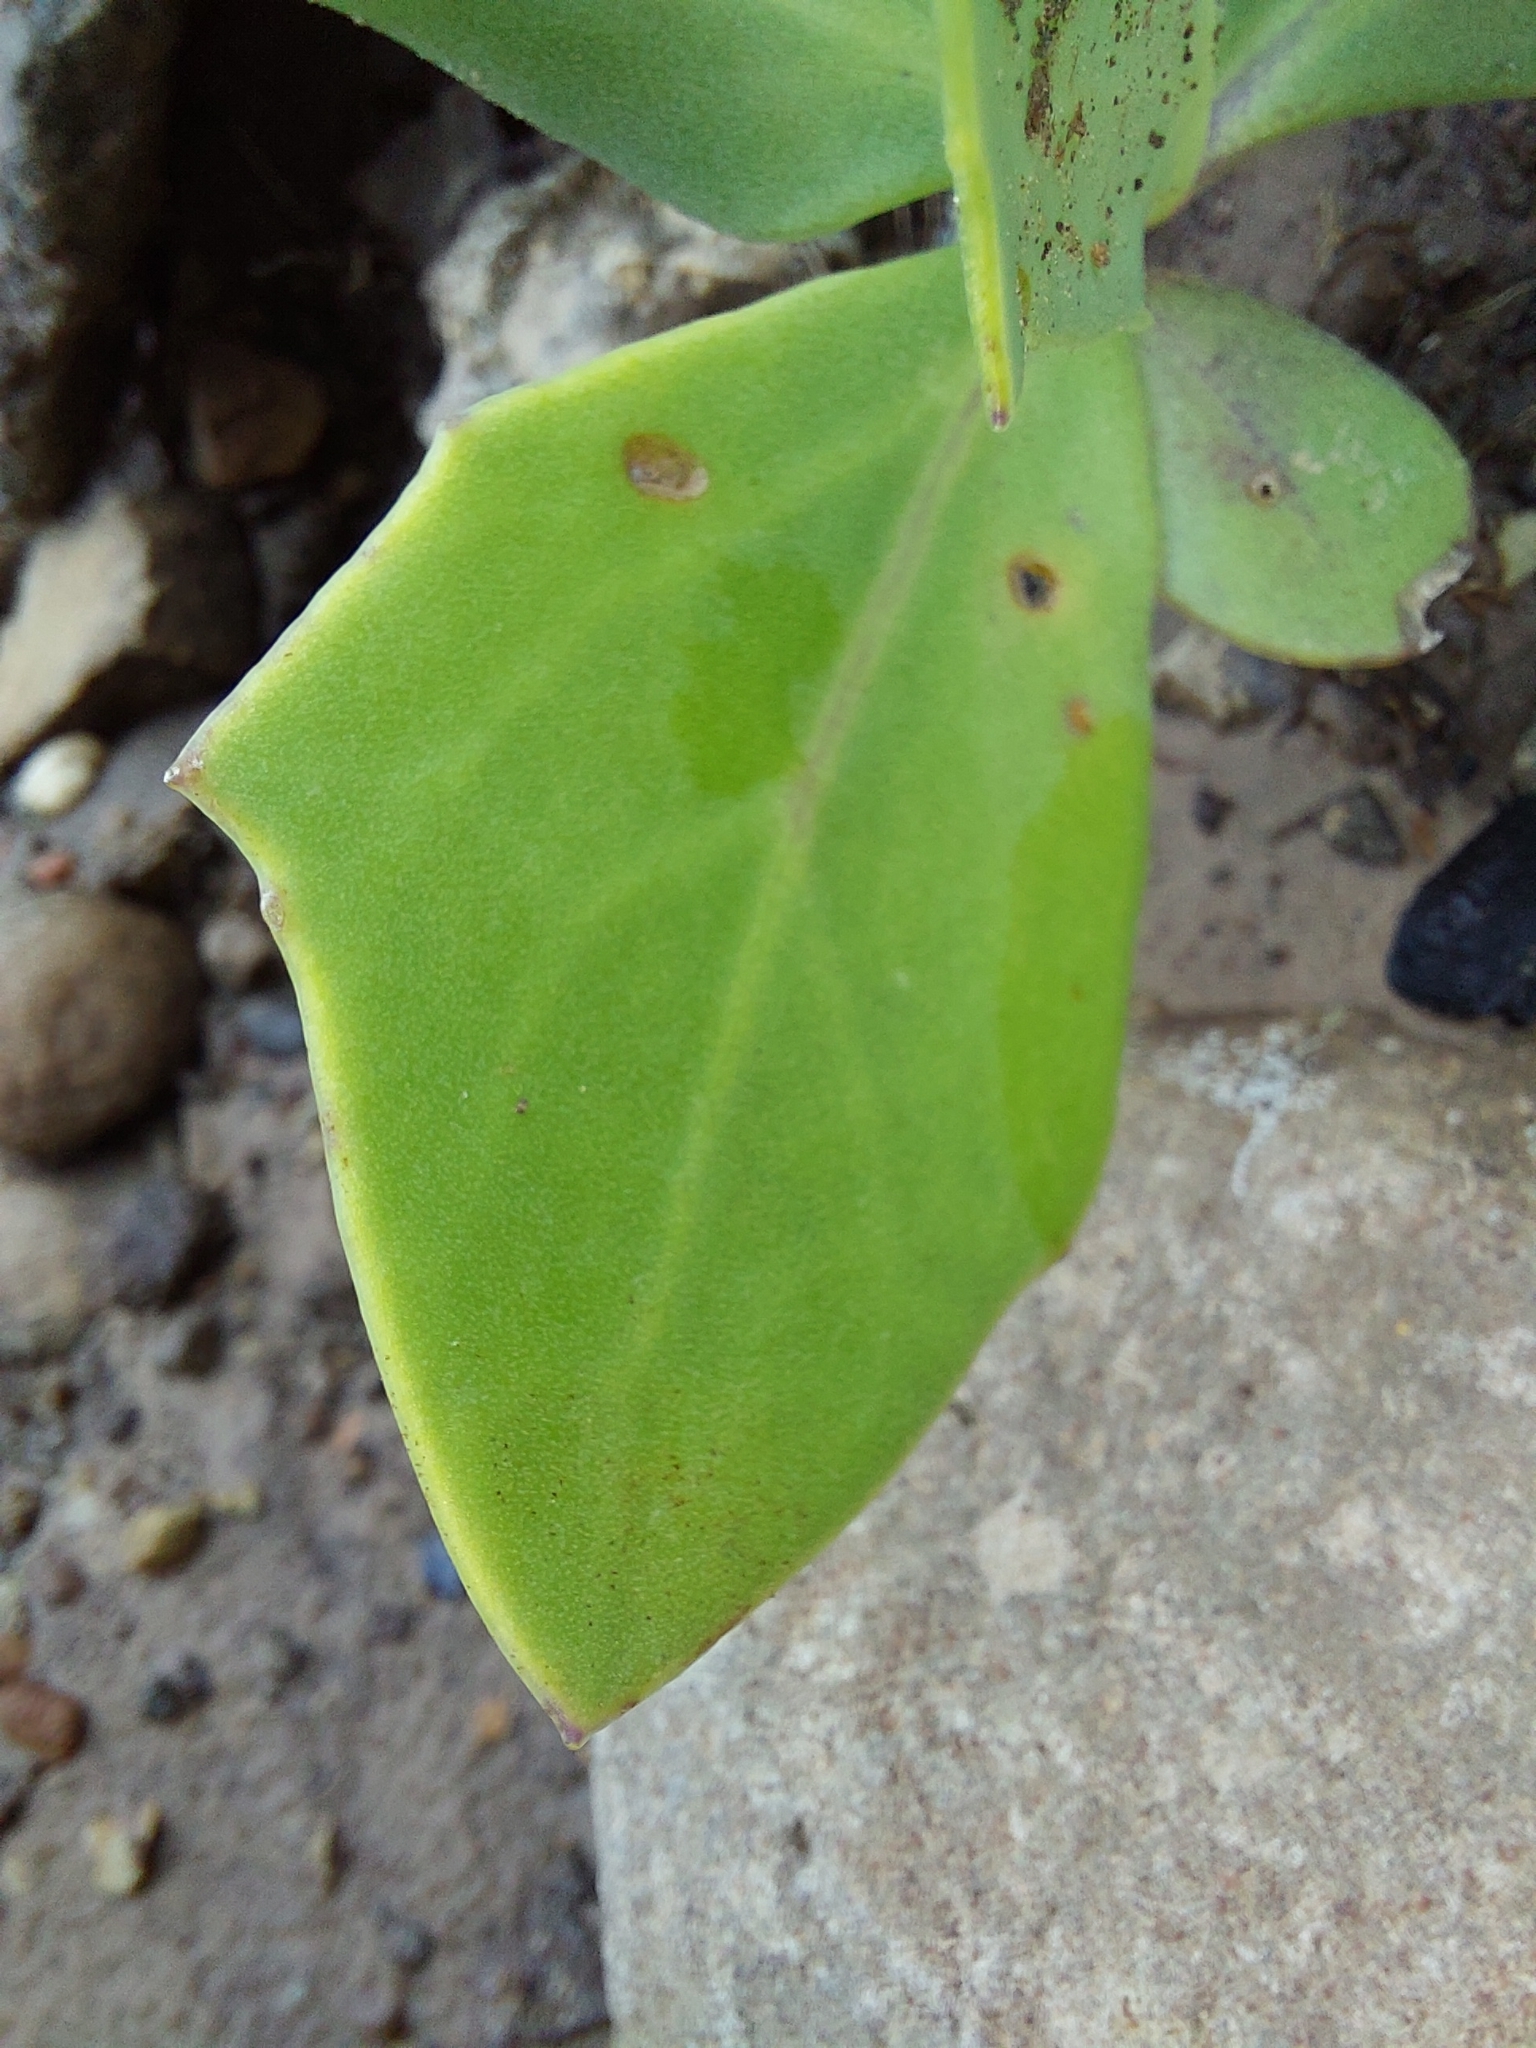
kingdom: Plantae
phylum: Tracheophyta
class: Magnoliopsida
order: Asterales
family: Asteraceae
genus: Senecio
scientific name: Senecio rhomboideus
